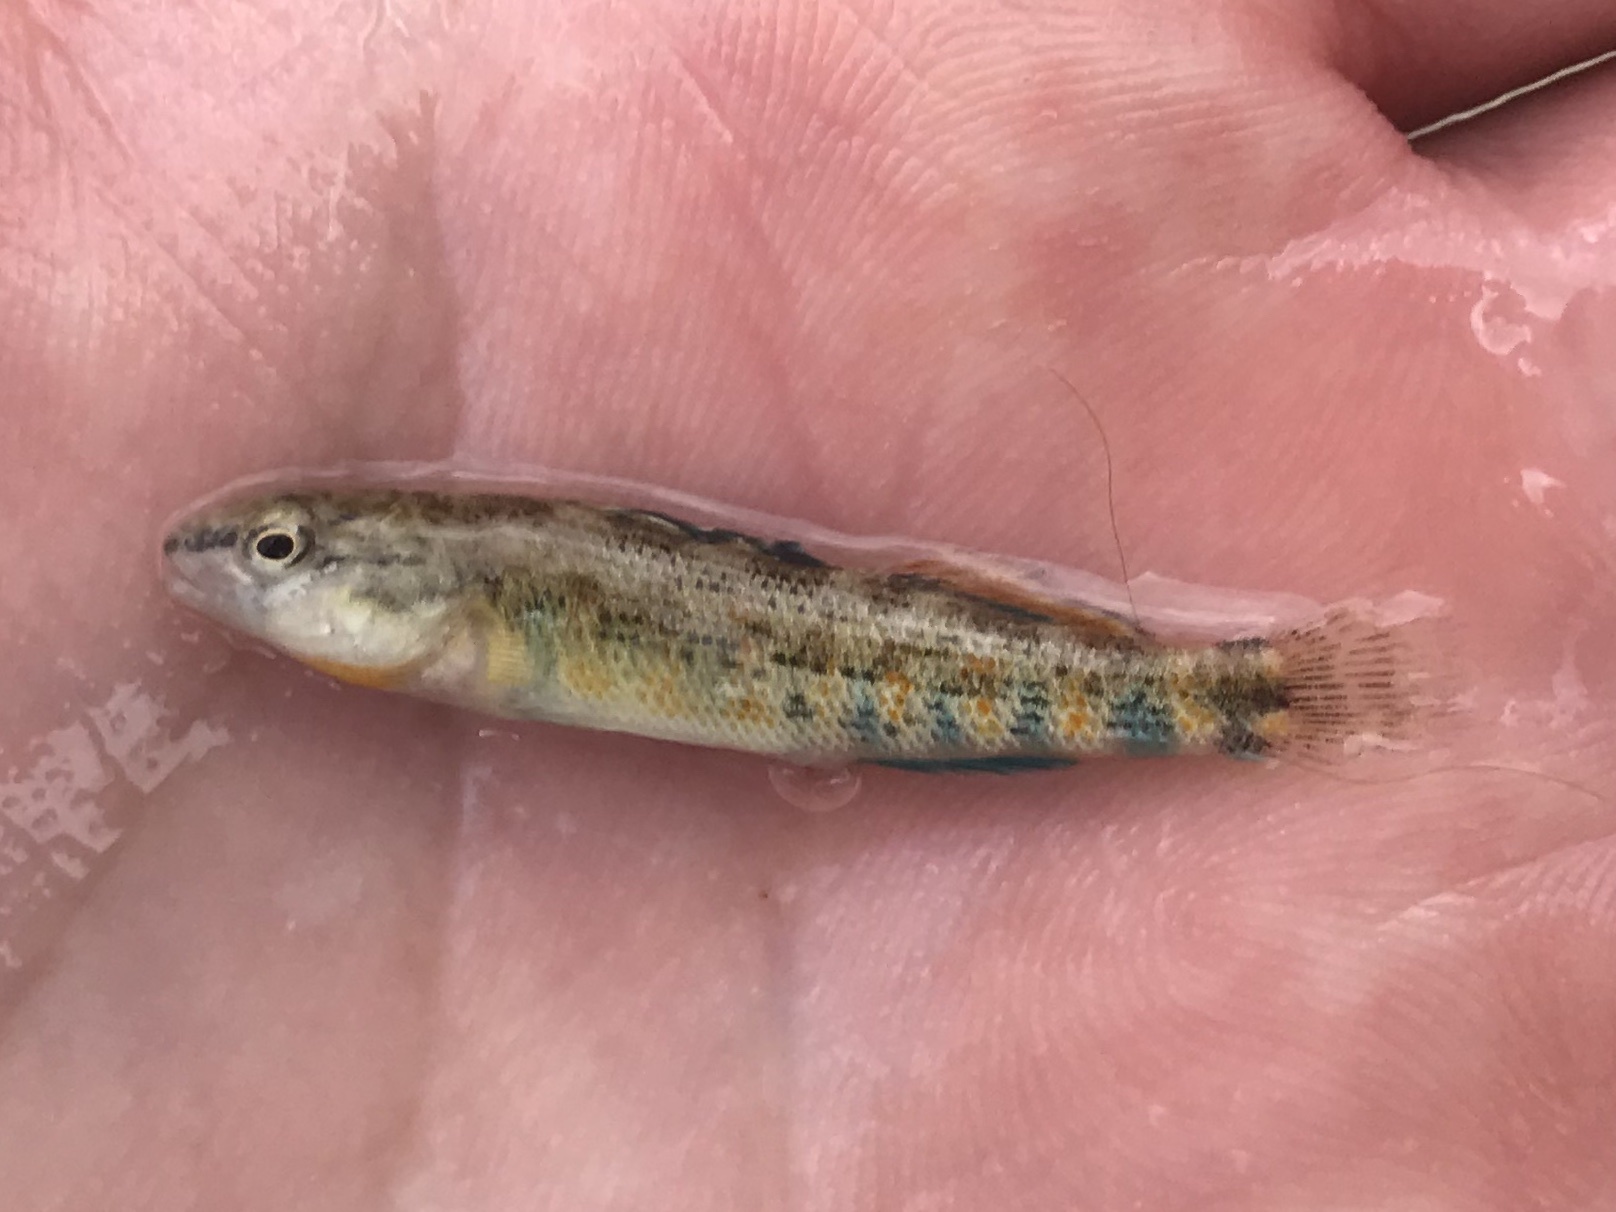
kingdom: Animalia
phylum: Chordata
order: Perciformes
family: Percidae
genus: Etheostoma
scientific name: Etheostoma spectabile
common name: Orangethroat darter
